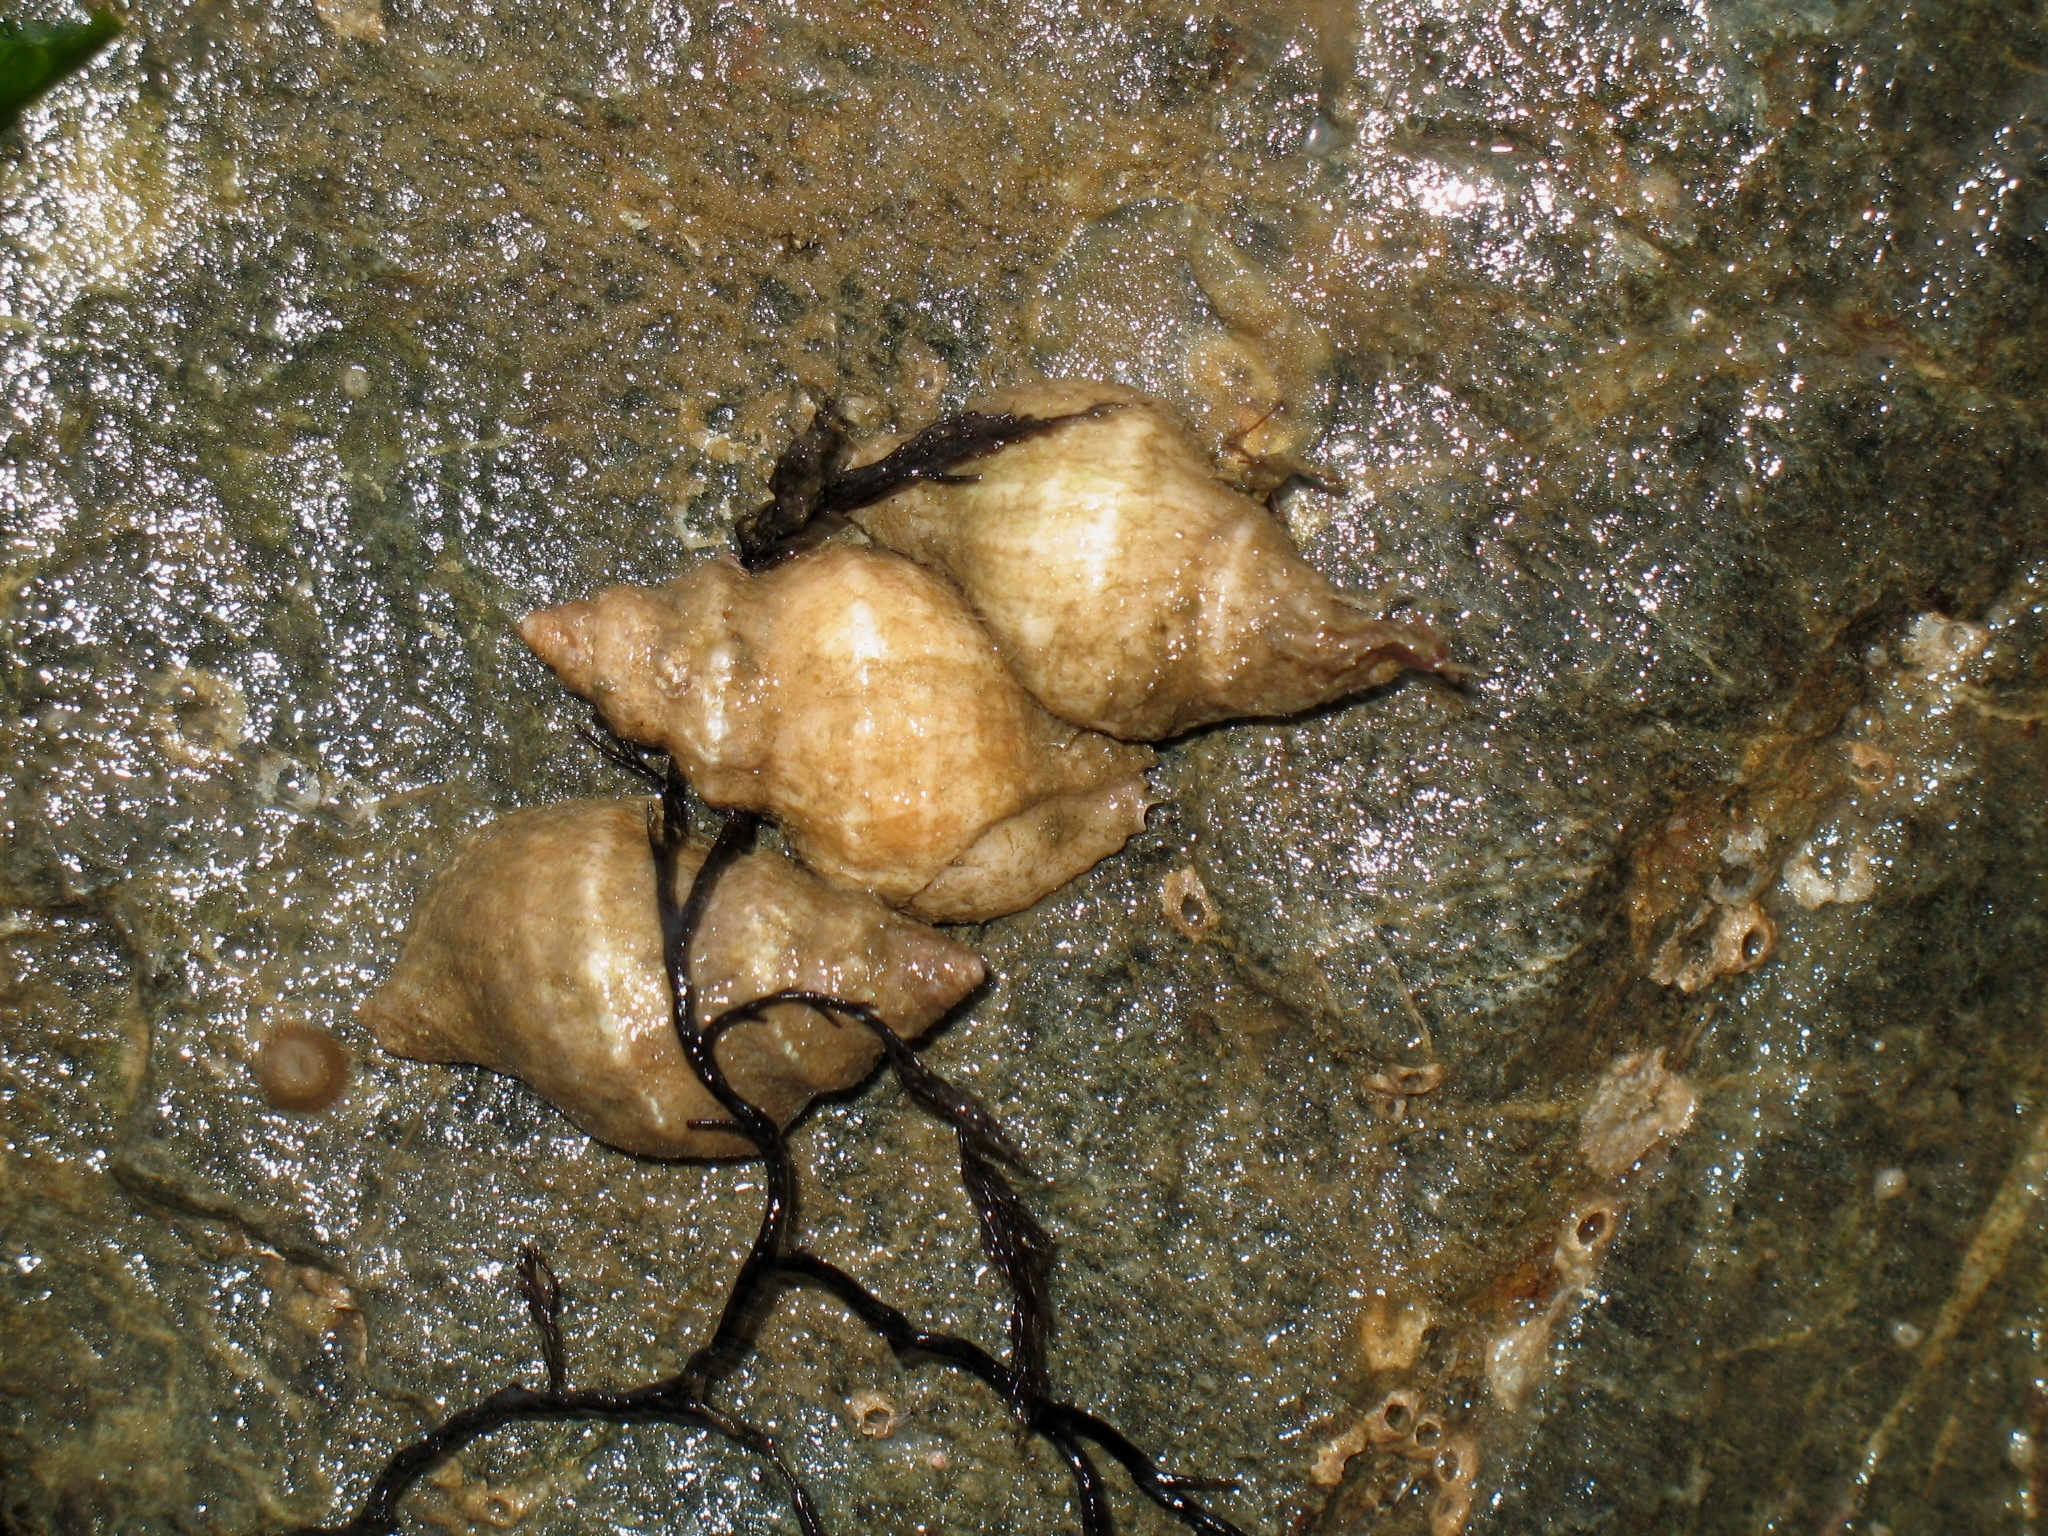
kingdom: Animalia
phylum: Mollusca
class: Gastropoda
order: Neogastropoda
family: Muricidae
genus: Nucella
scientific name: Nucella lamellosa
